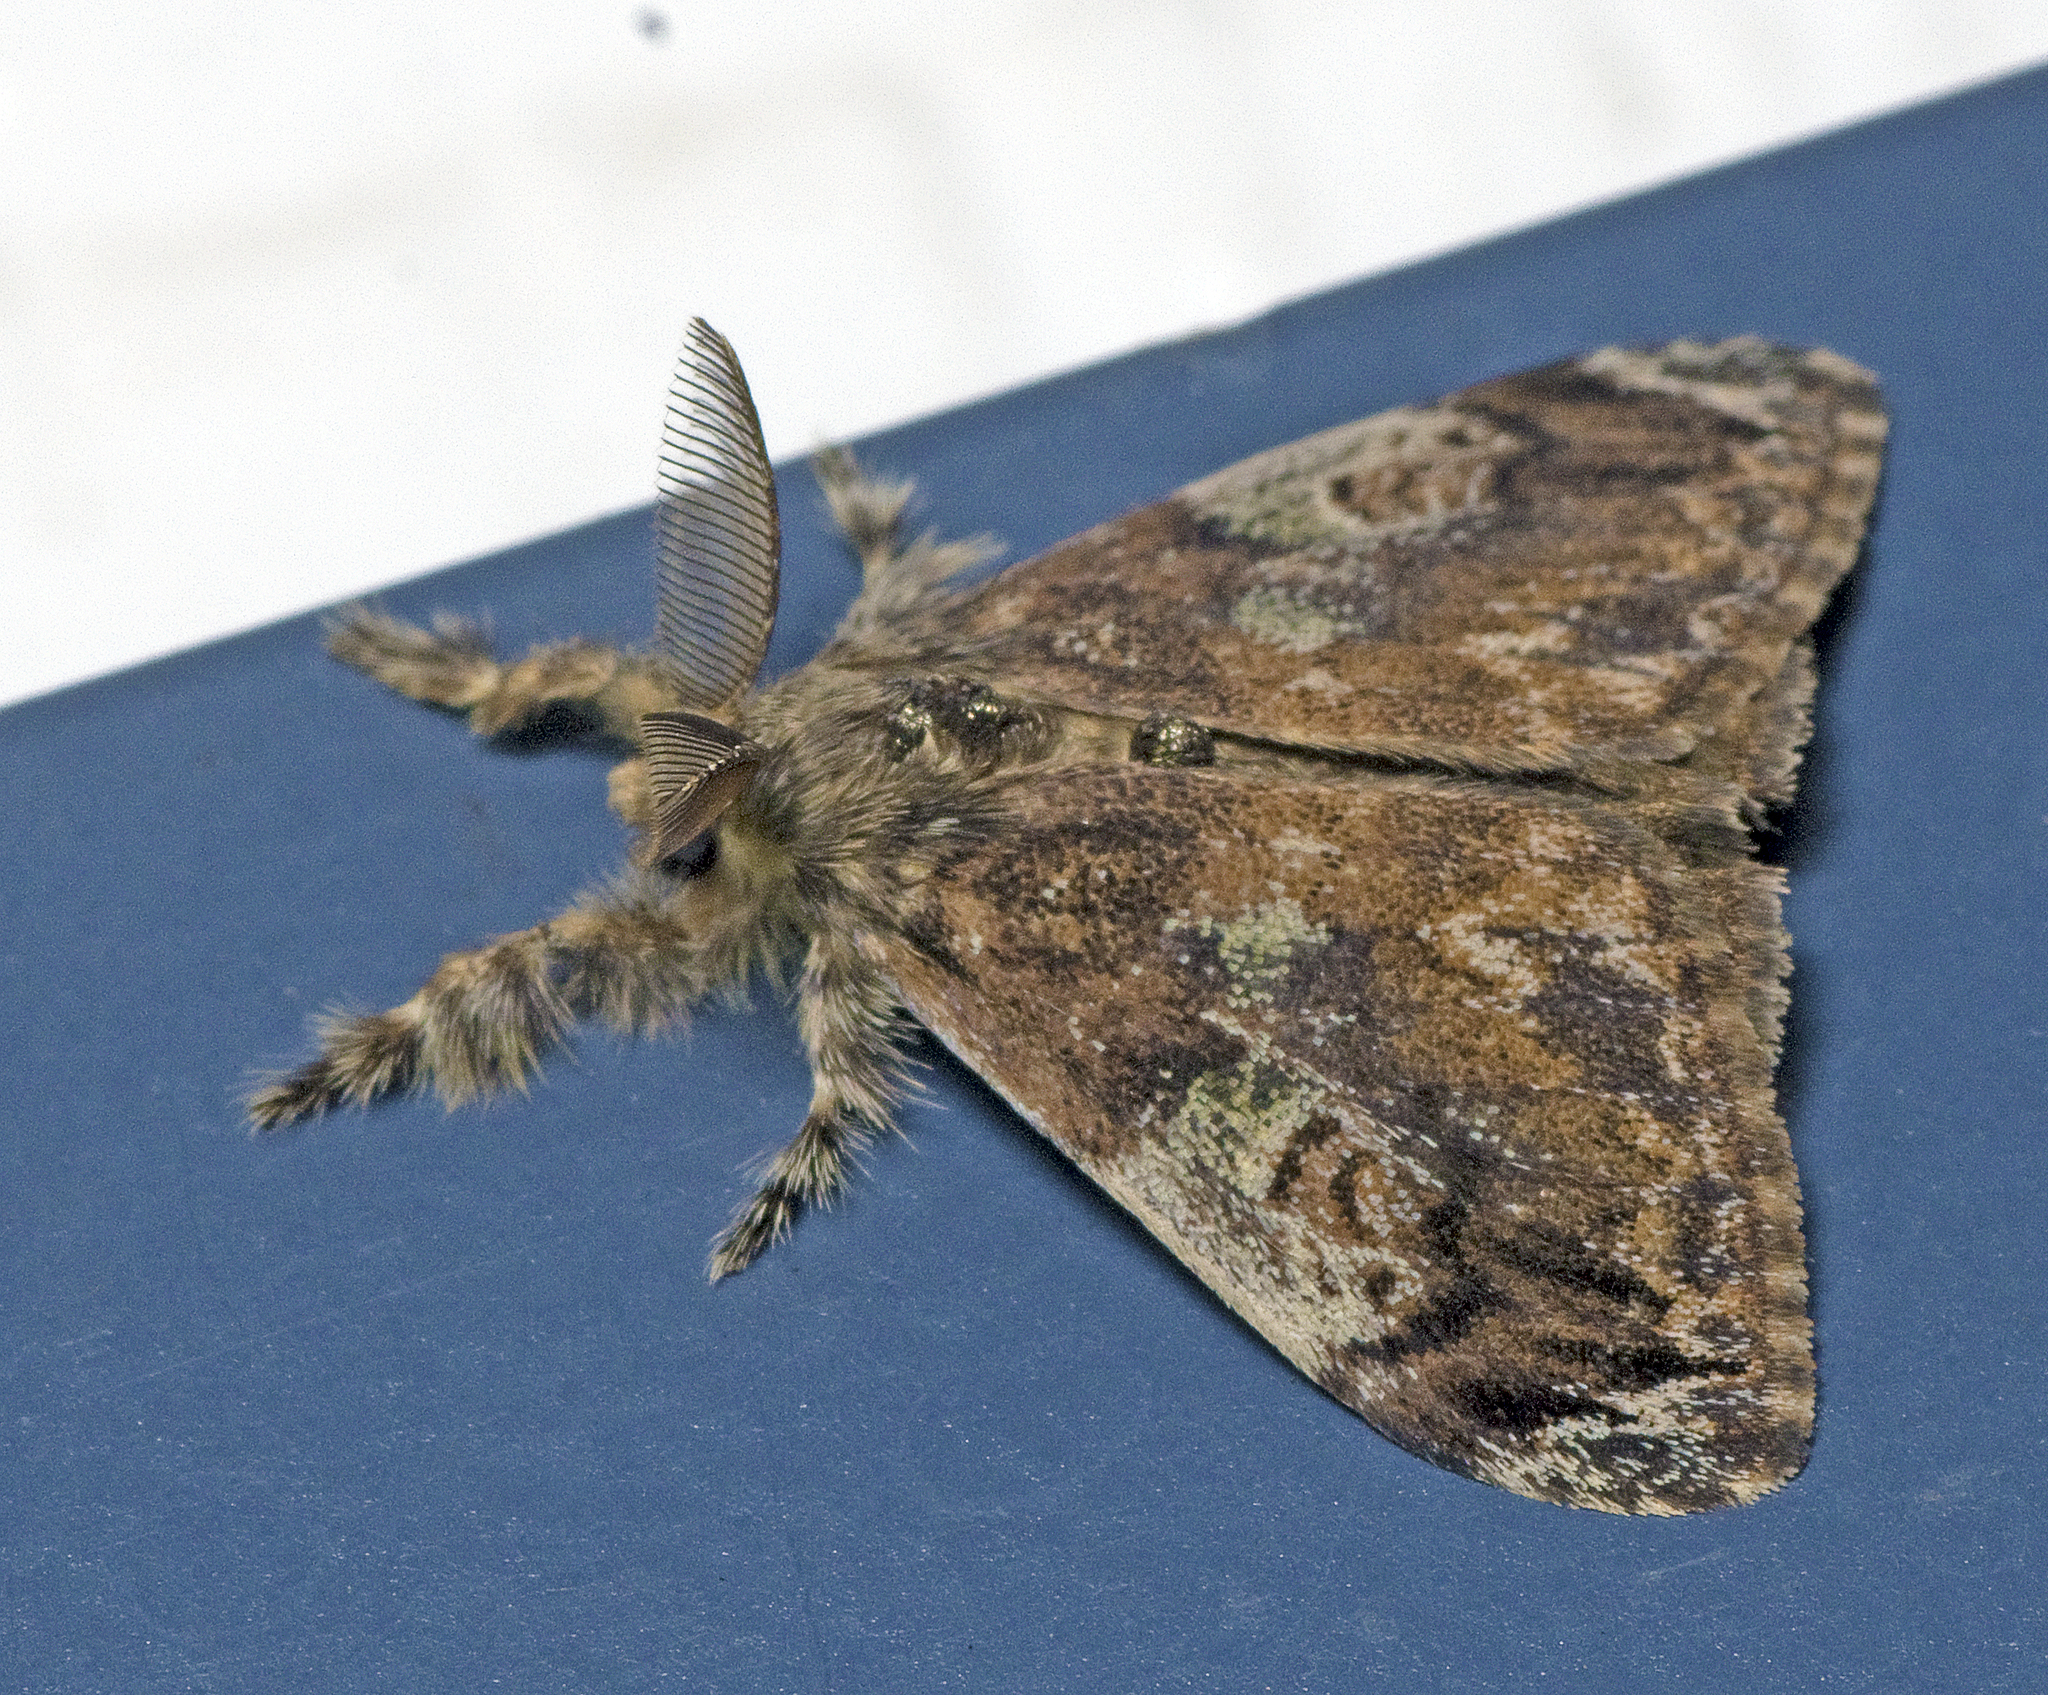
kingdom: Animalia
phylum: Arthropoda
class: Insecta
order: Lepidoptera
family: Erebidae
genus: Orgyia
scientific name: Orgyia australis
